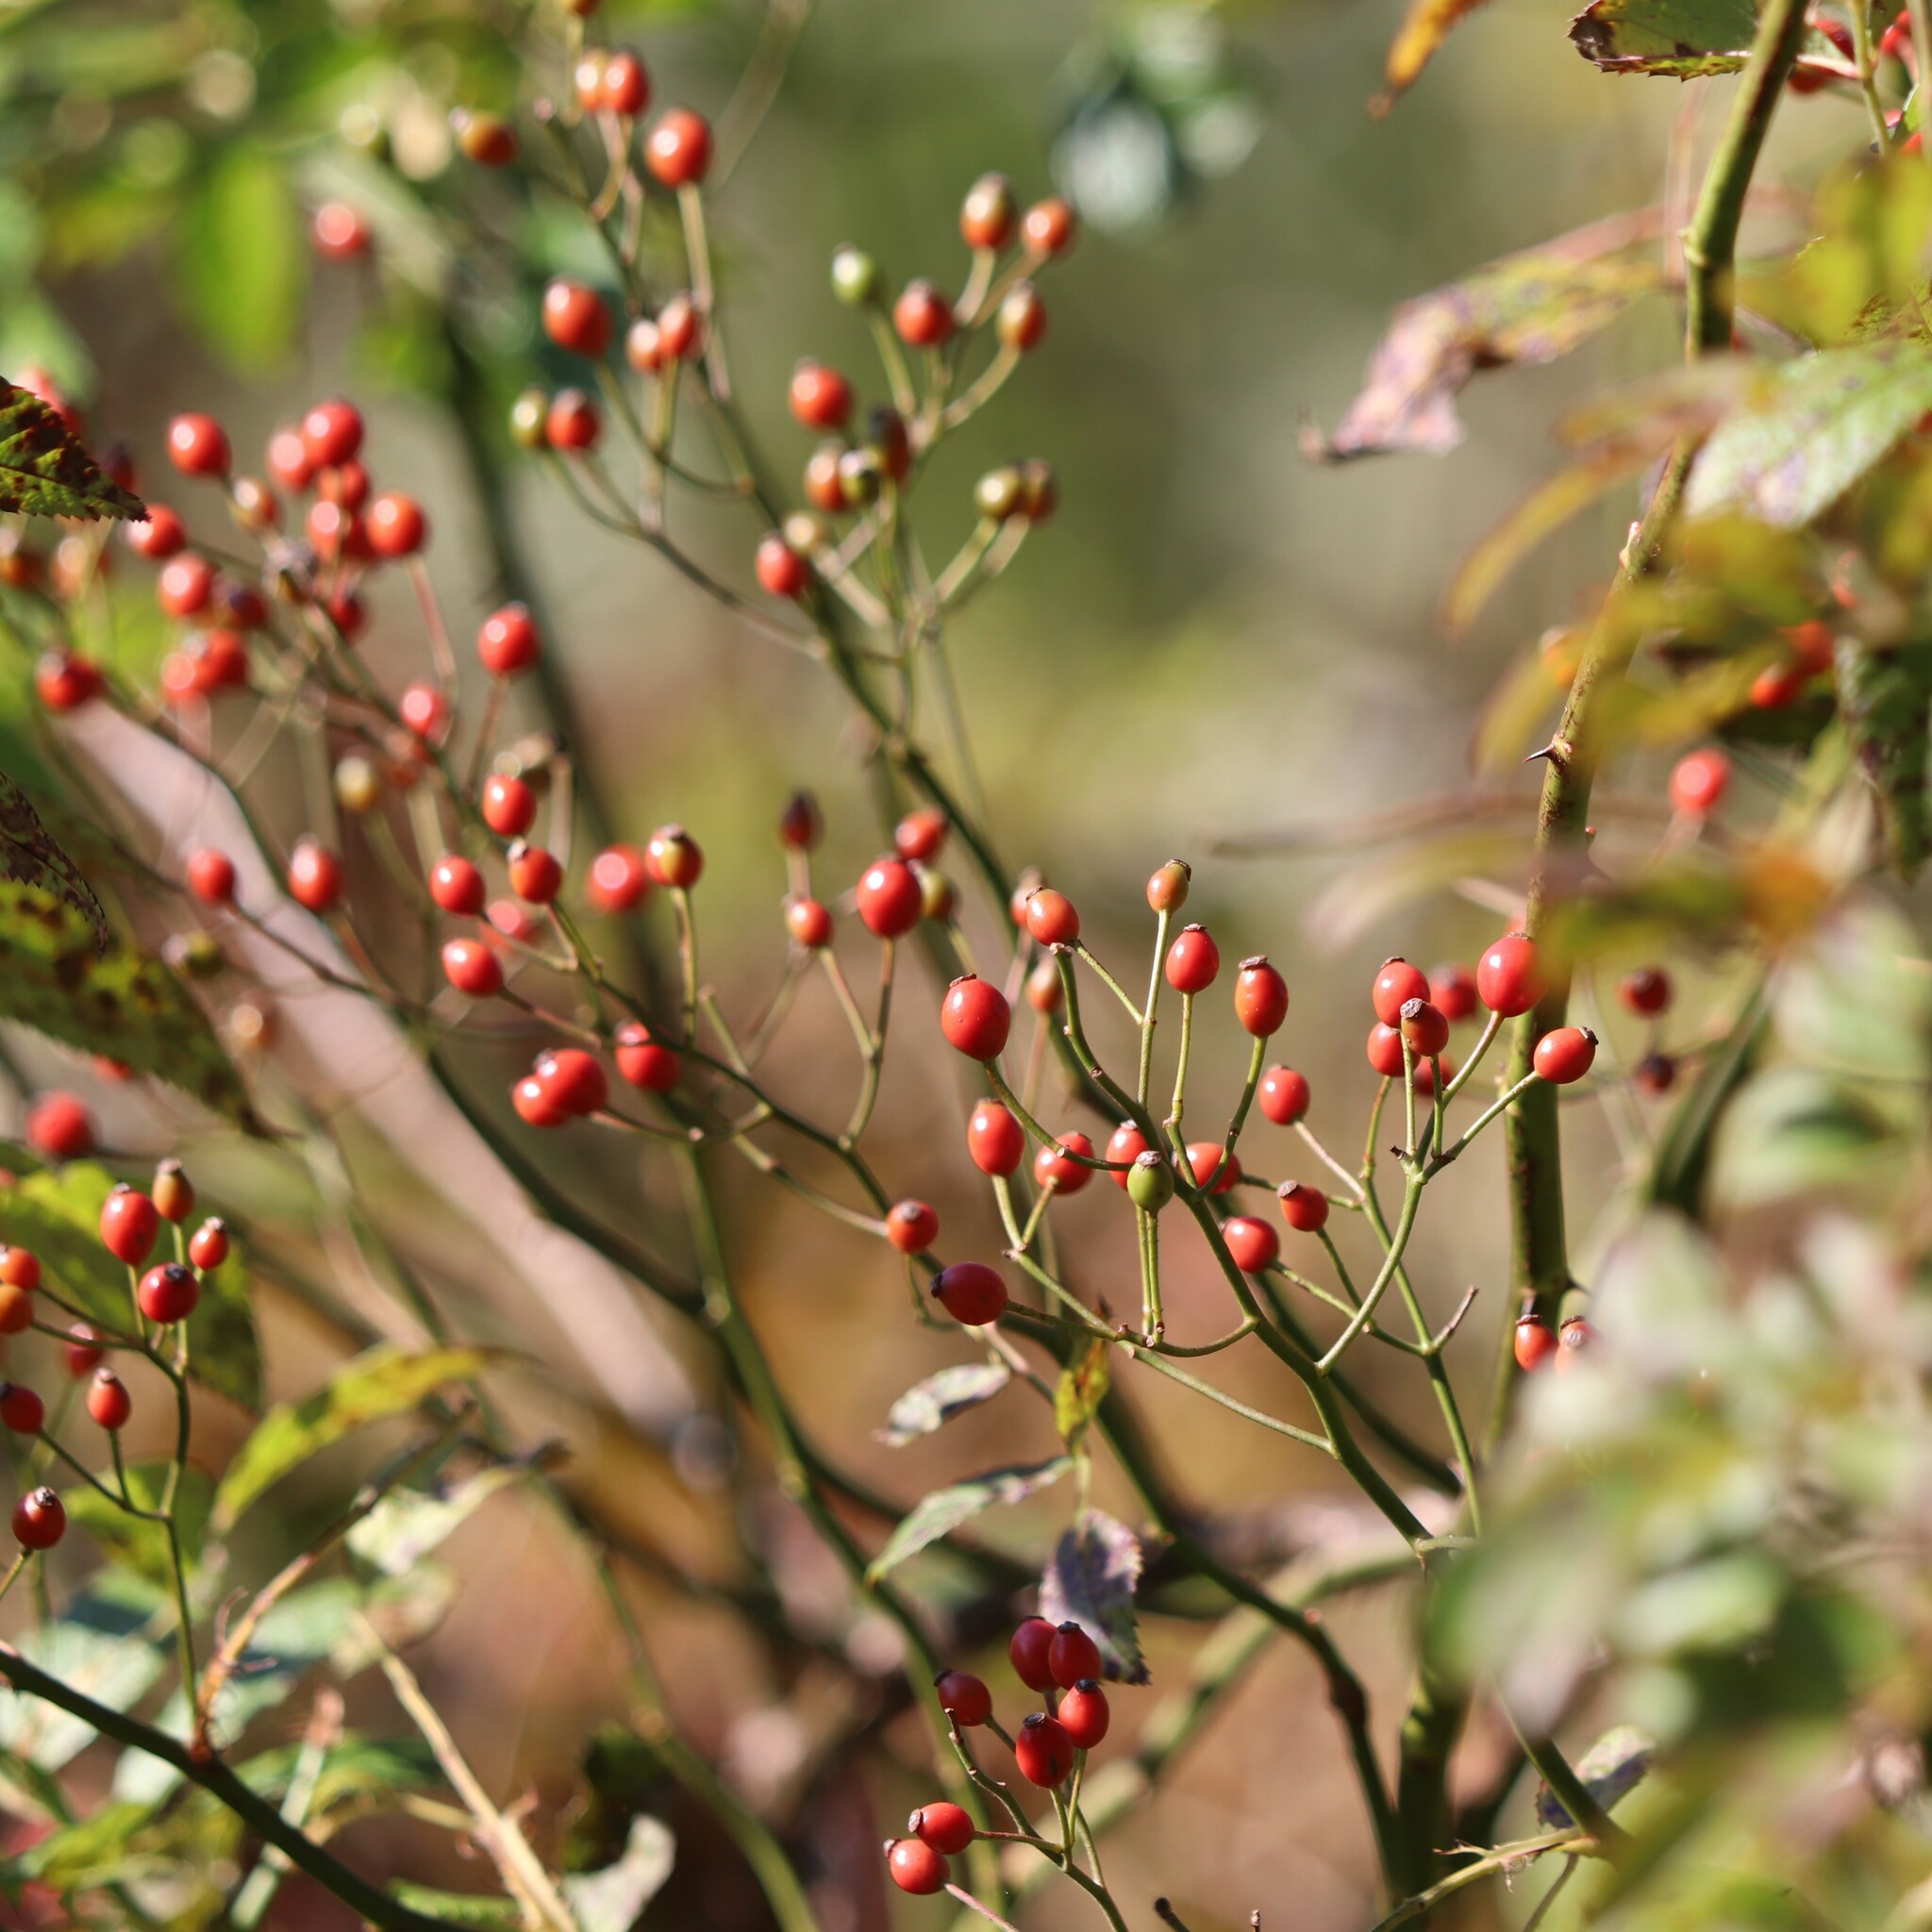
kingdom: Plantae
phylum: Tracheophyta
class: Magnoliopsida
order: Rosales
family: Rosaceae
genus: Rosa
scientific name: Rosa multiflora
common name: Multiflora rose
